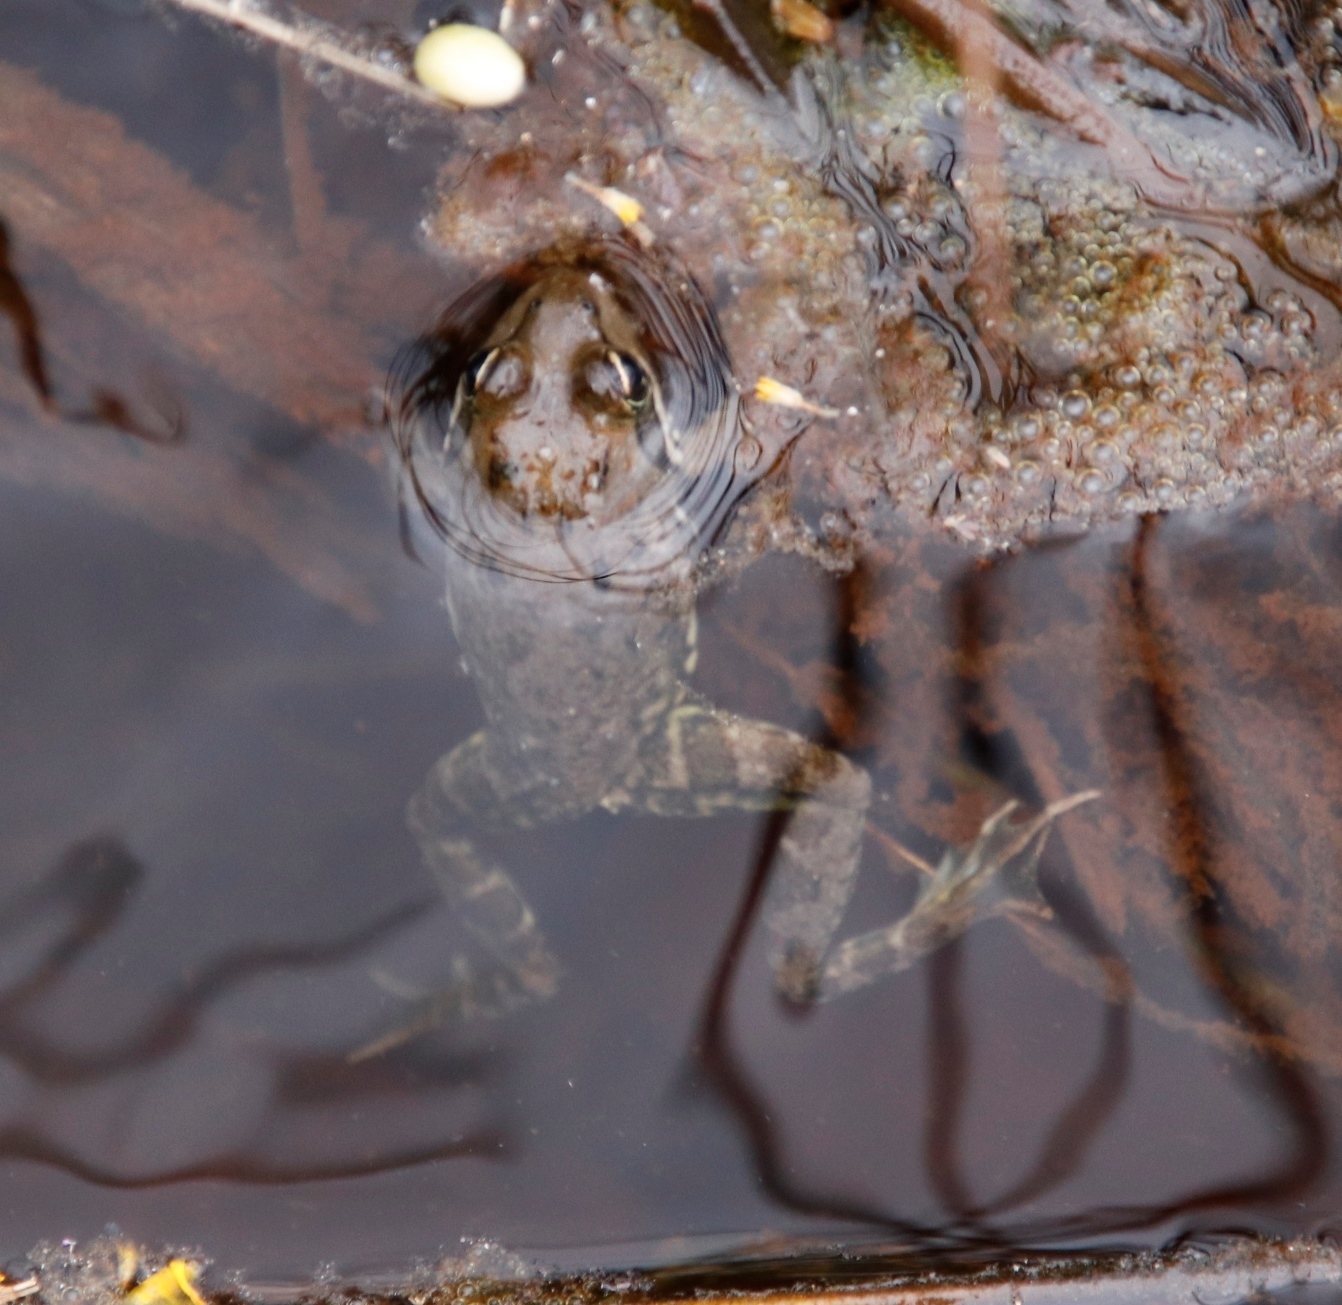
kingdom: Animalia
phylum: Chordata
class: Amphibia
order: Anura
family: Pyxicephalidae
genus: Amietia
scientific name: Amietia fuscigula
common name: Cape rana
